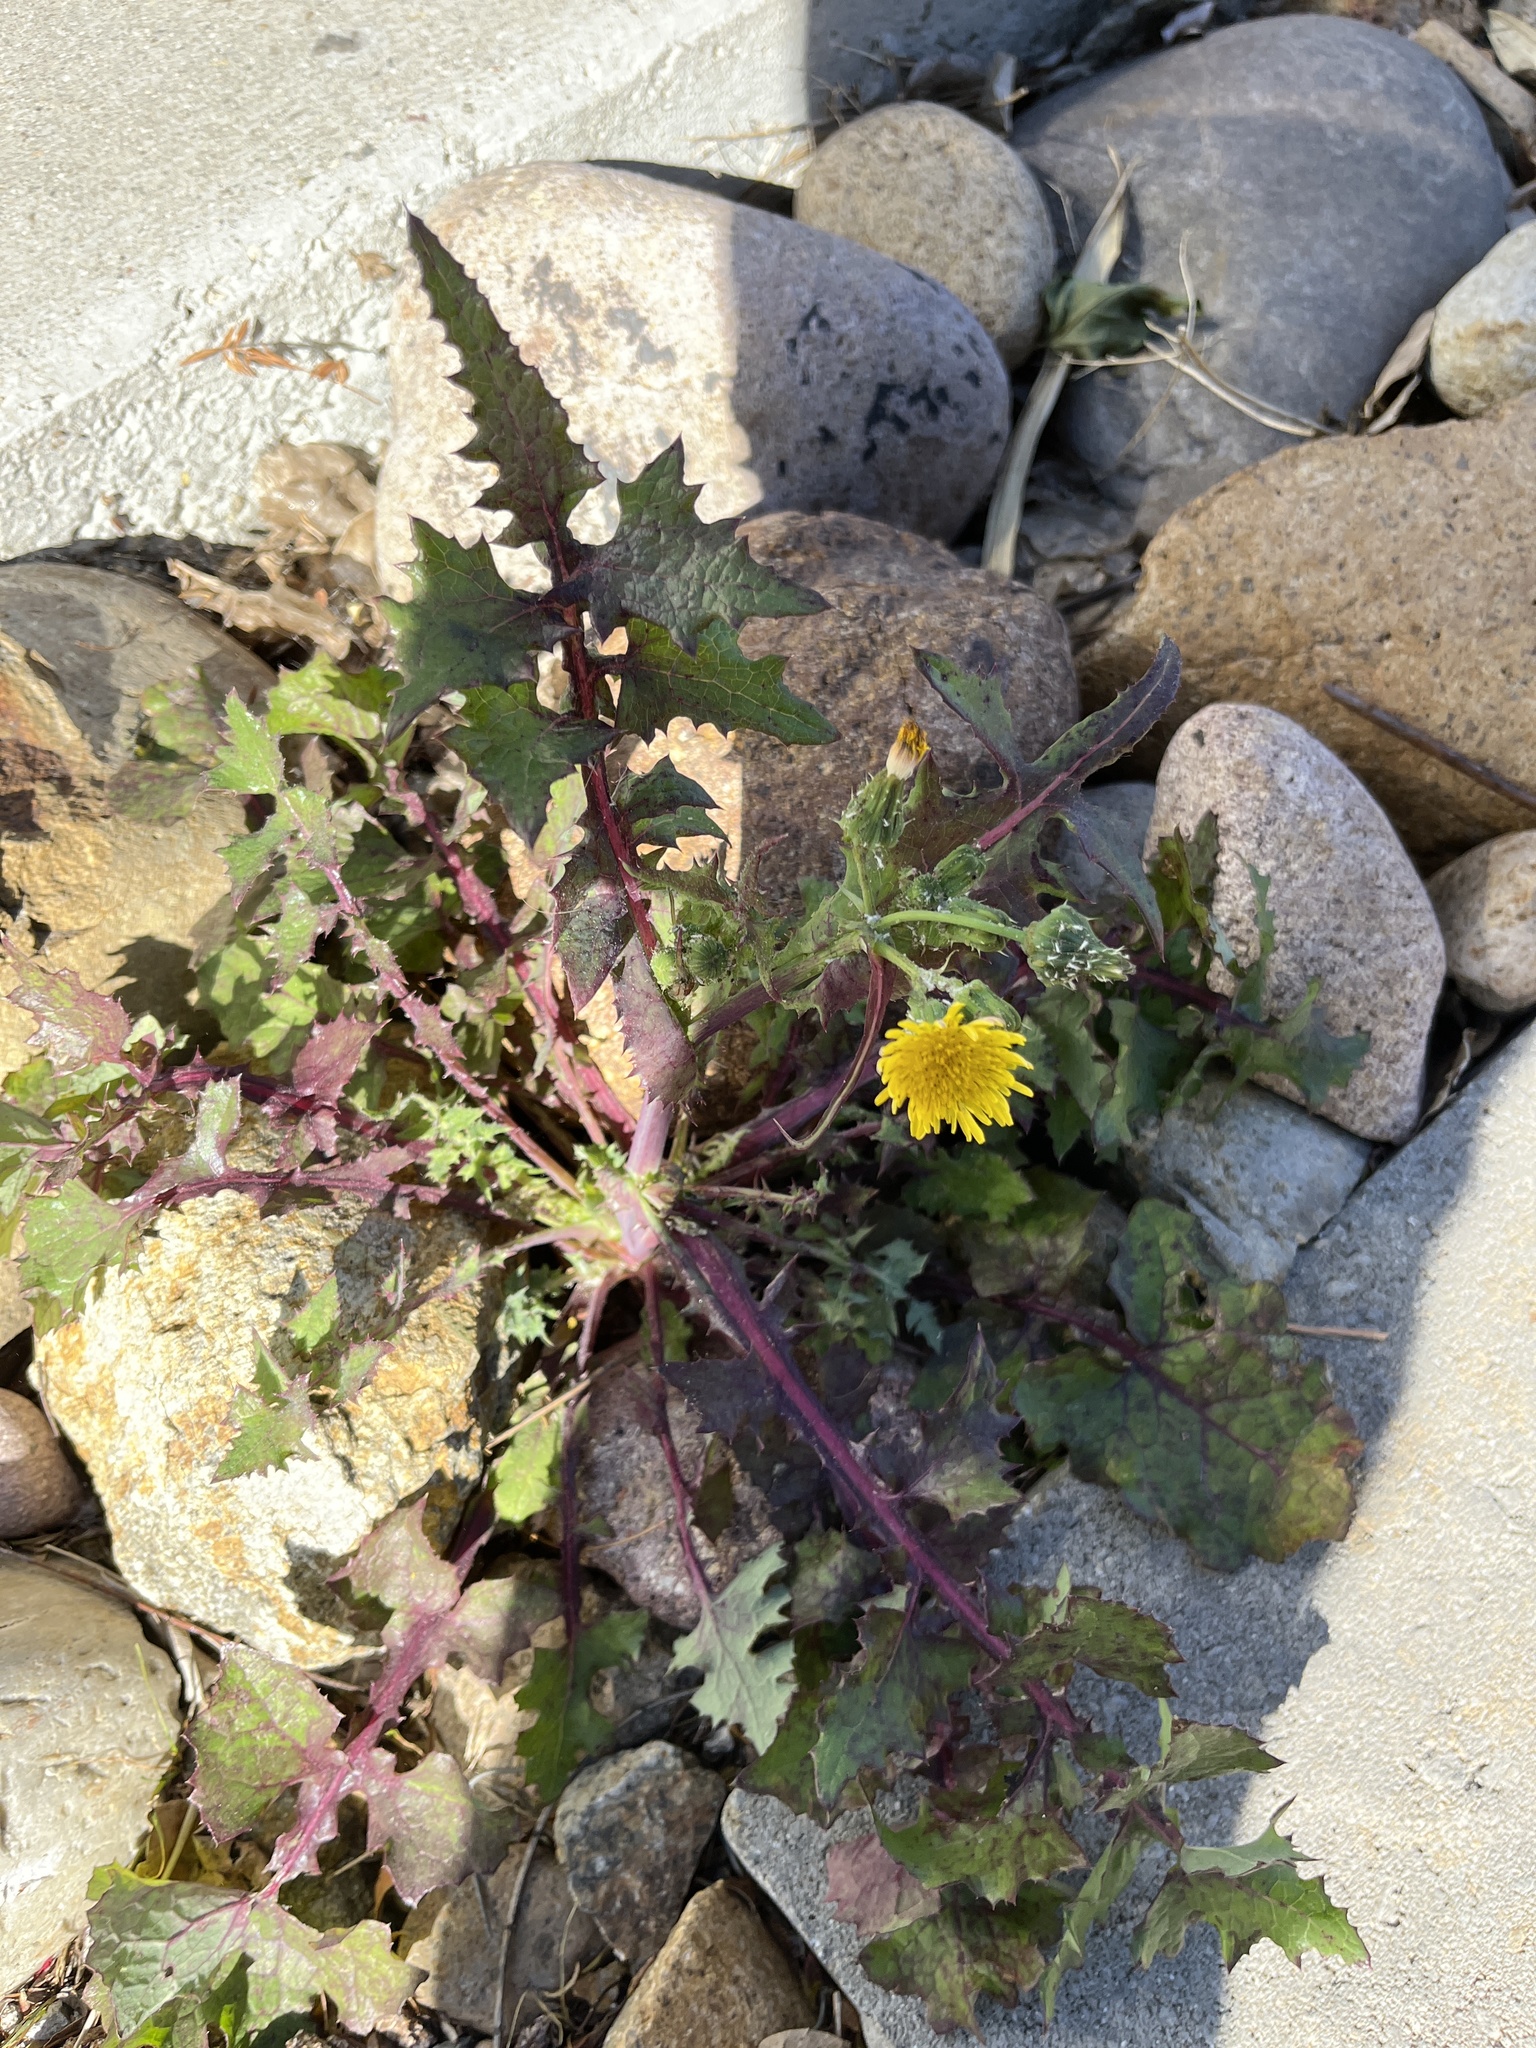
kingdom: Plantae
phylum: Tracheophyta
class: Magnoliopsida
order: Asterales
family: Asteraceae
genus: Sonchus
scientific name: Sonchus oleraceus
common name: Common sowthistle
